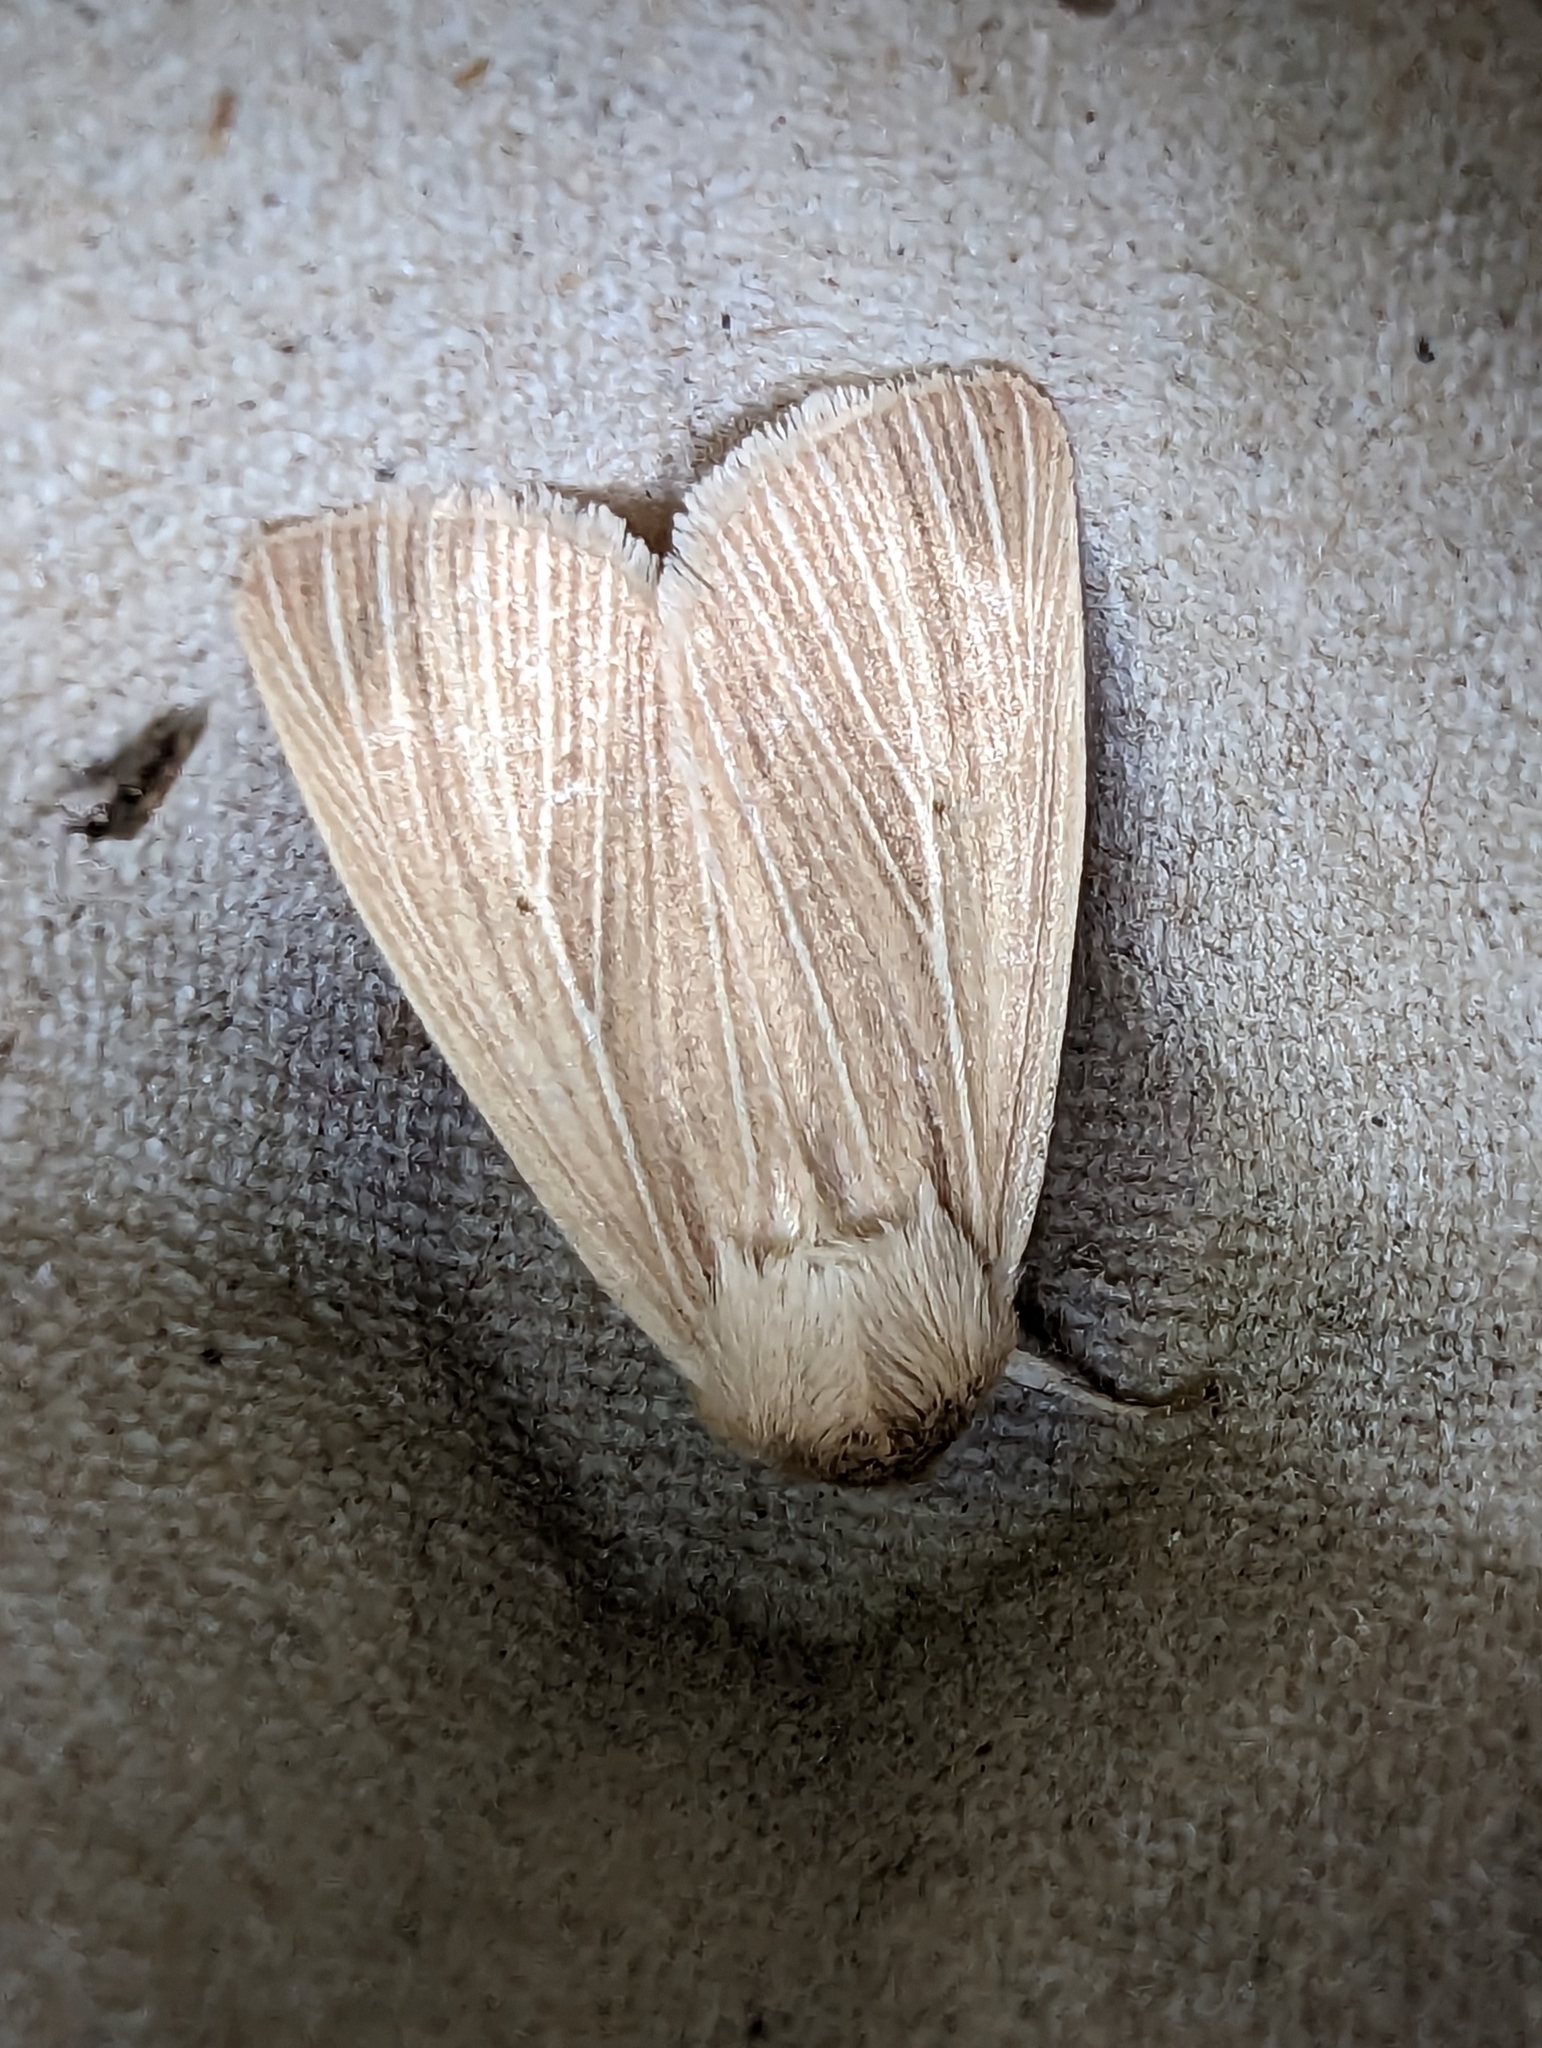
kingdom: Animalia
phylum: Arthropoda
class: Insecta
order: Lepidoptera
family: Noctuidae
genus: Mythimna
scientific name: Mythimna pallens
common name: Common wainscot
